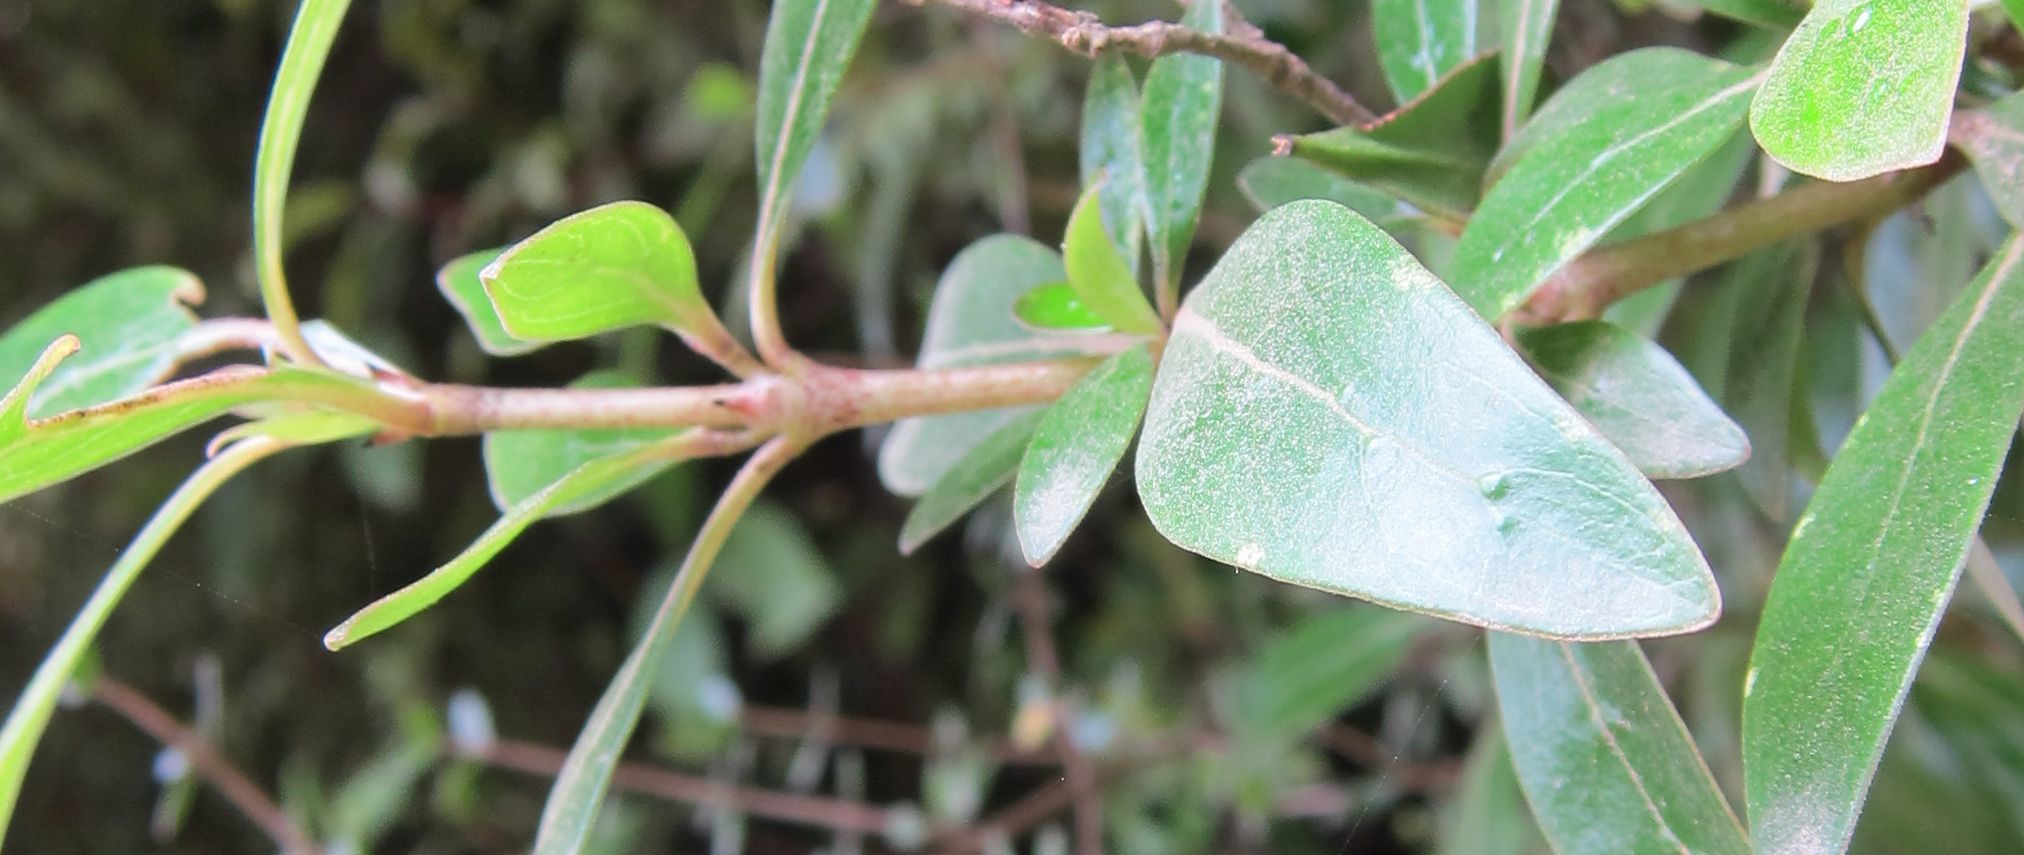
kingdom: Plantae
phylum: Tracheophyta
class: Magnoliopsida
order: Gentianales
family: Rubiaceae
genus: Coprosma
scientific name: Coprosma cunninghamii
